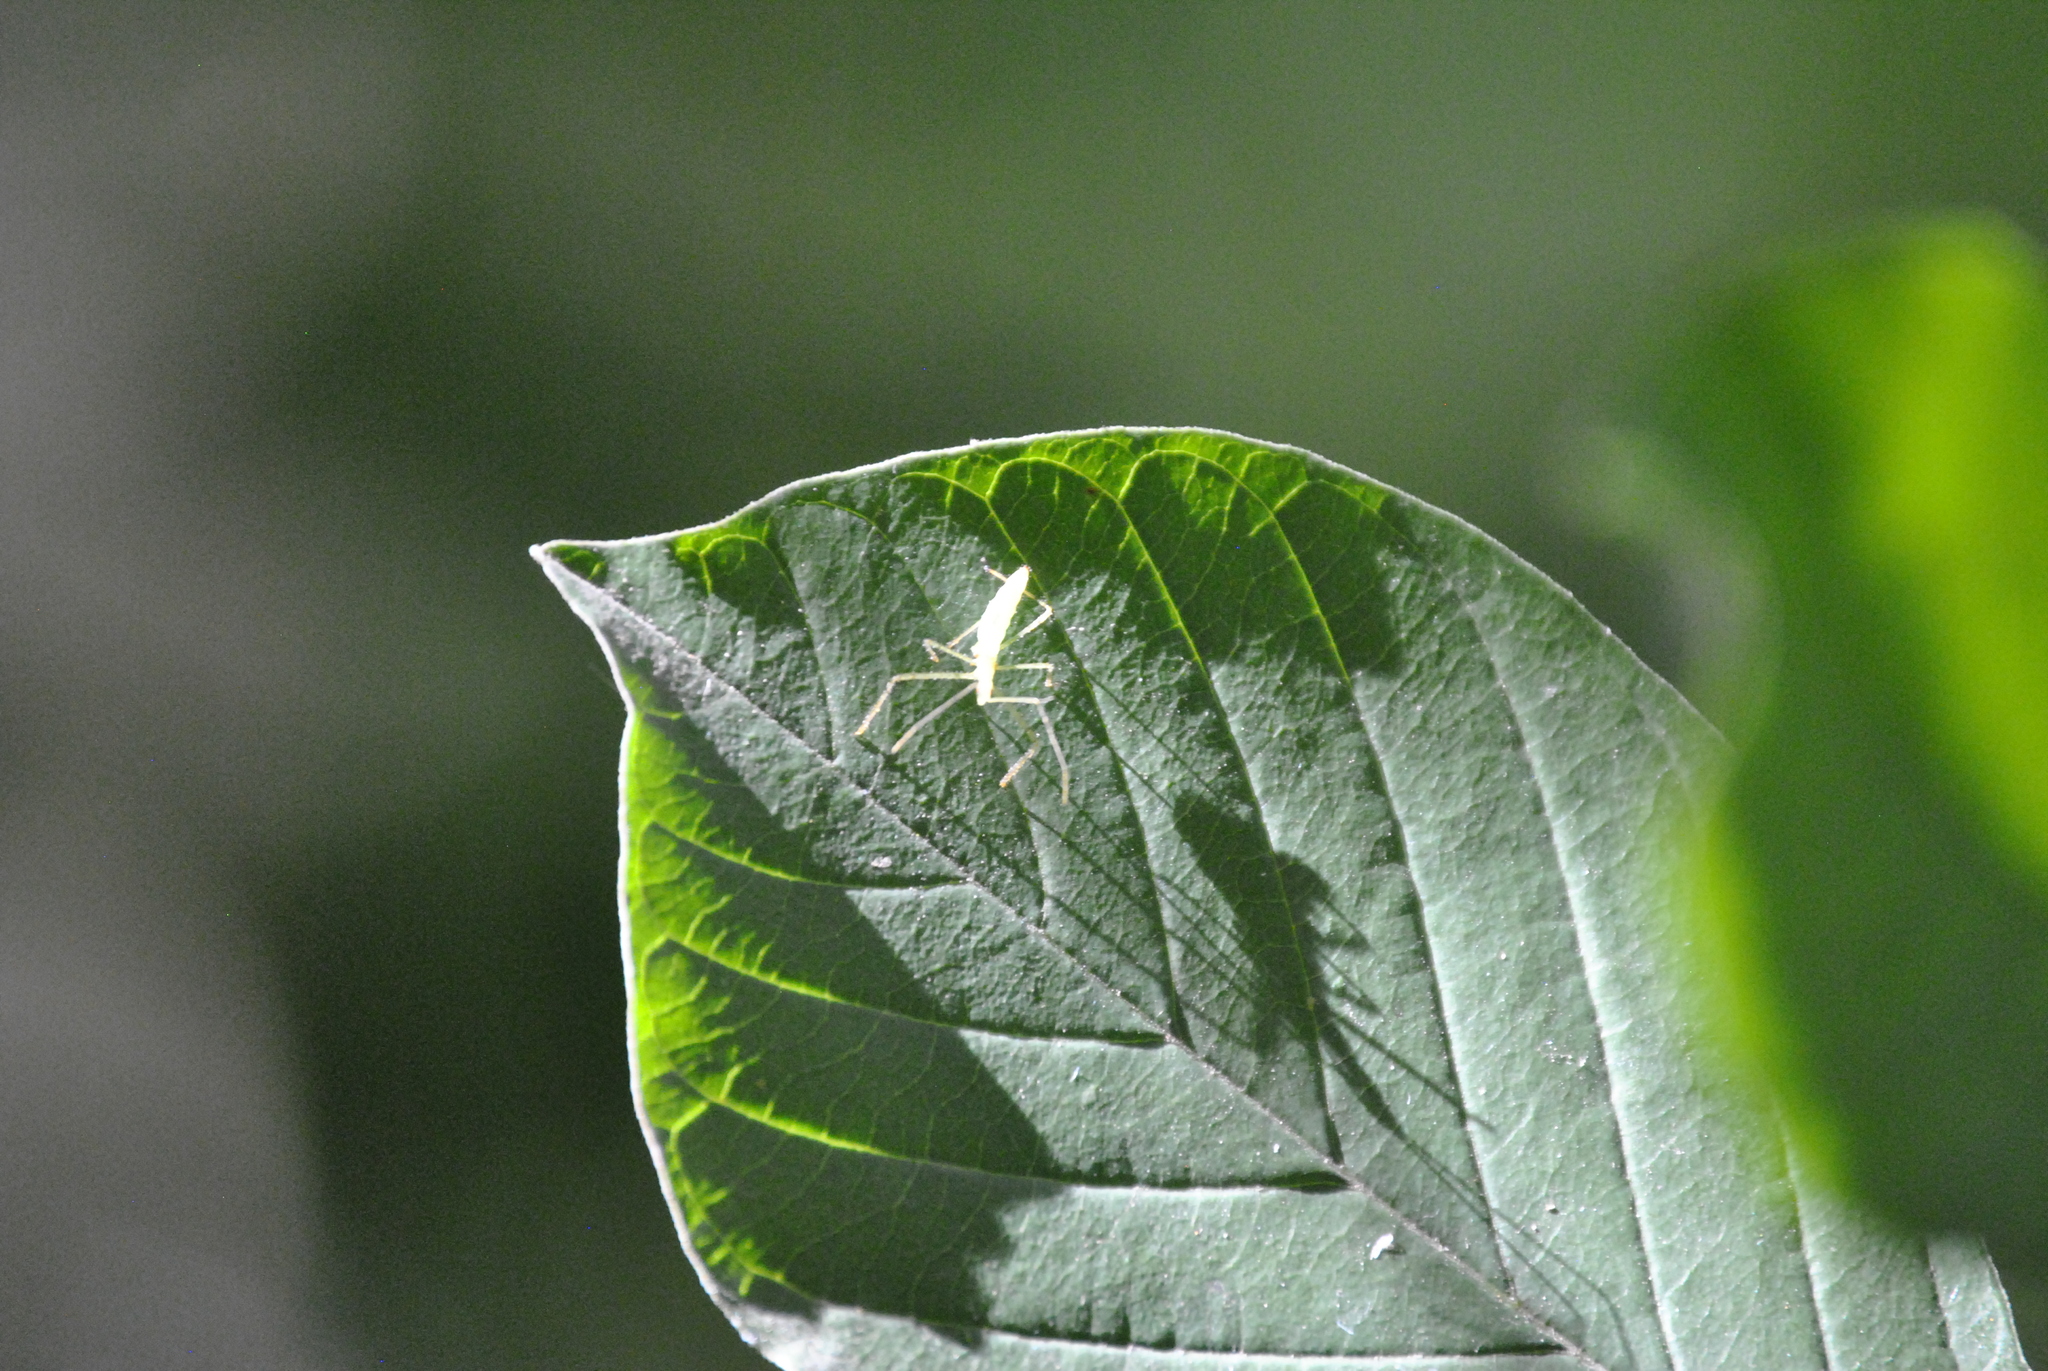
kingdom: Animalia
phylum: Arthropoda
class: Insecta
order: Hemiptera
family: Reduviidae
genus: Zelus
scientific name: Zelus luridus
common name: Pale green assassin bug
